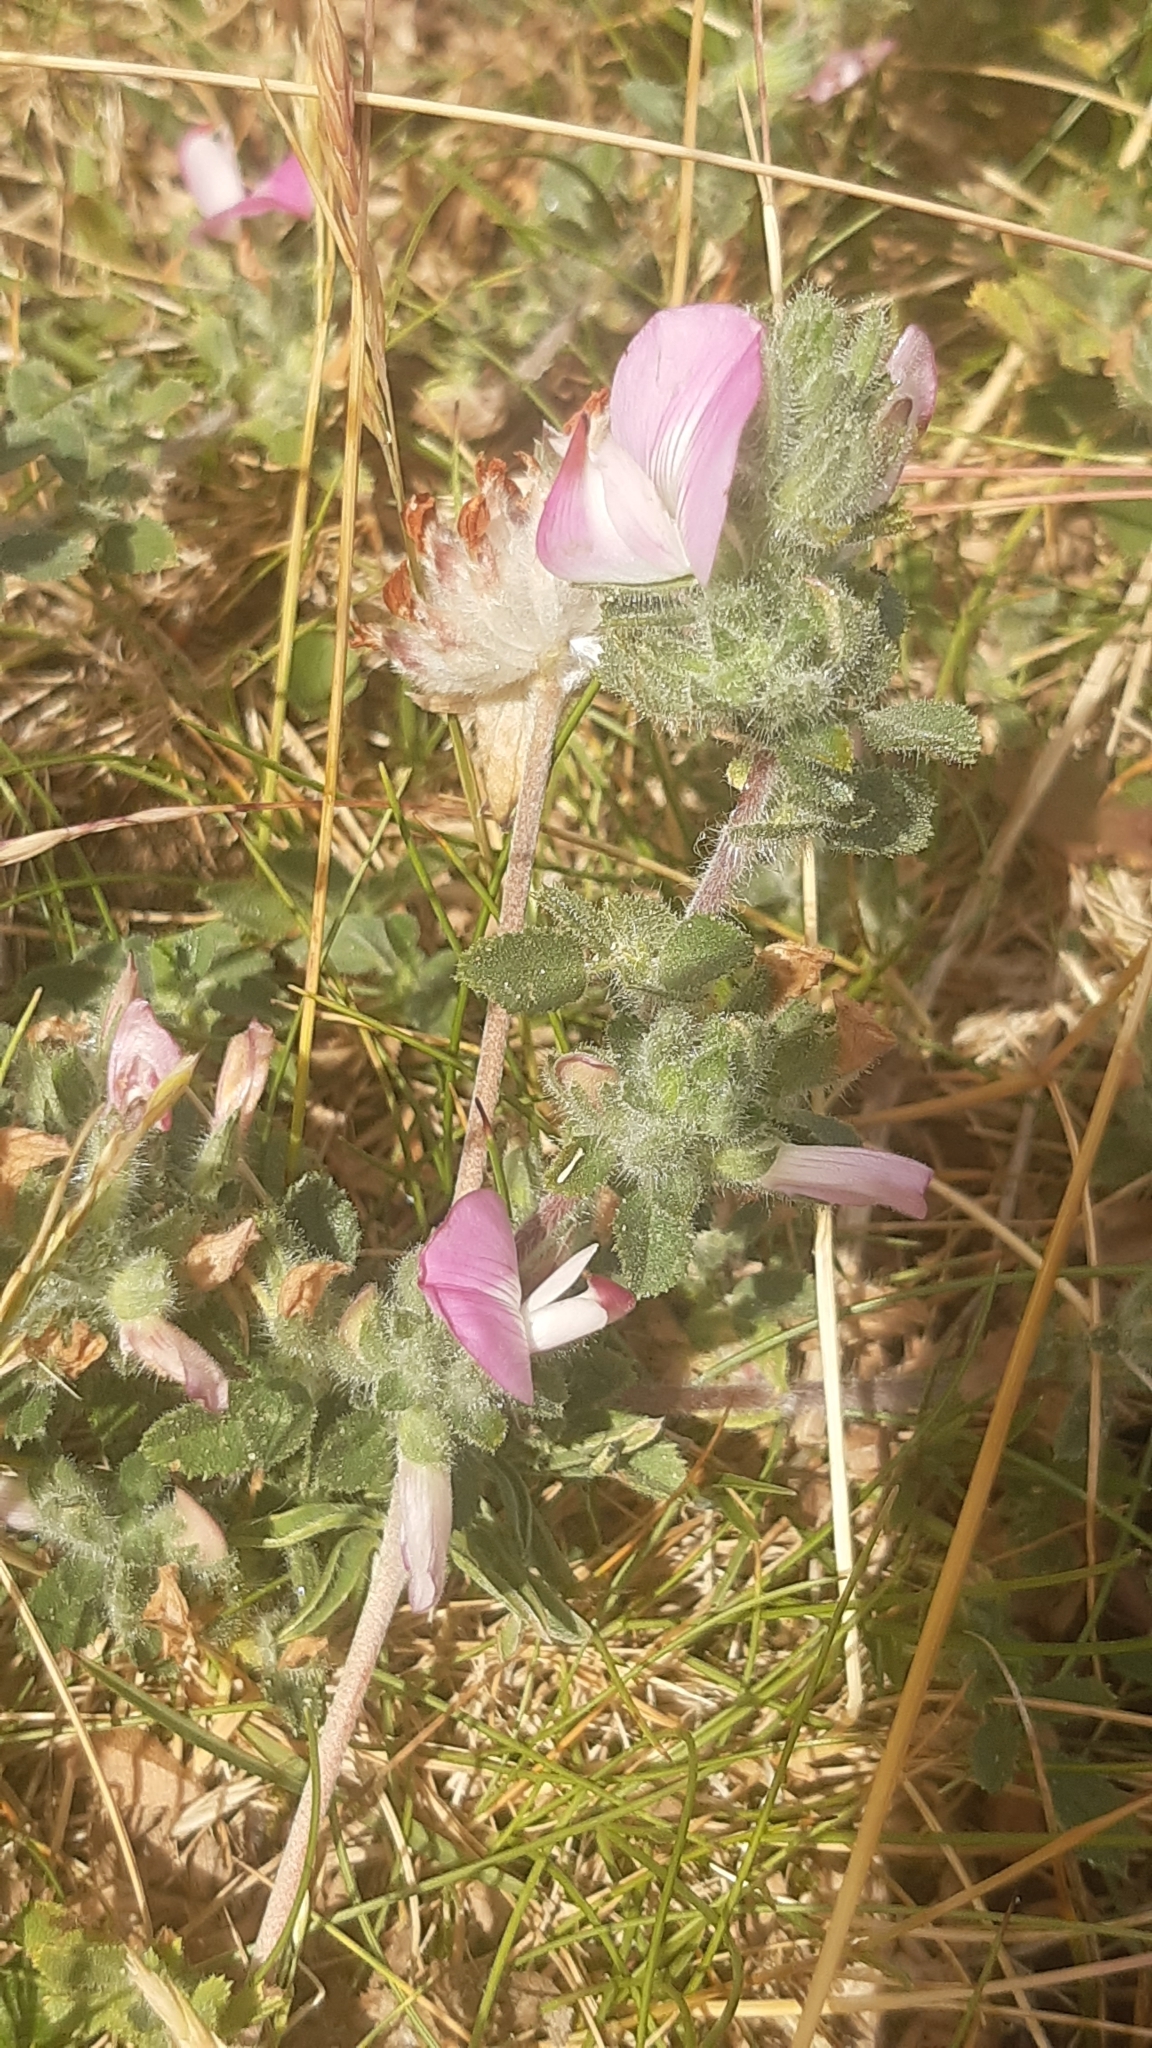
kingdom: Plantae
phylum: Tracheophyta
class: Magnoliopsida
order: Fabales
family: Fabaceae
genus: Ononis
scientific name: Ononis spinosa
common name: Spiny restharrow
